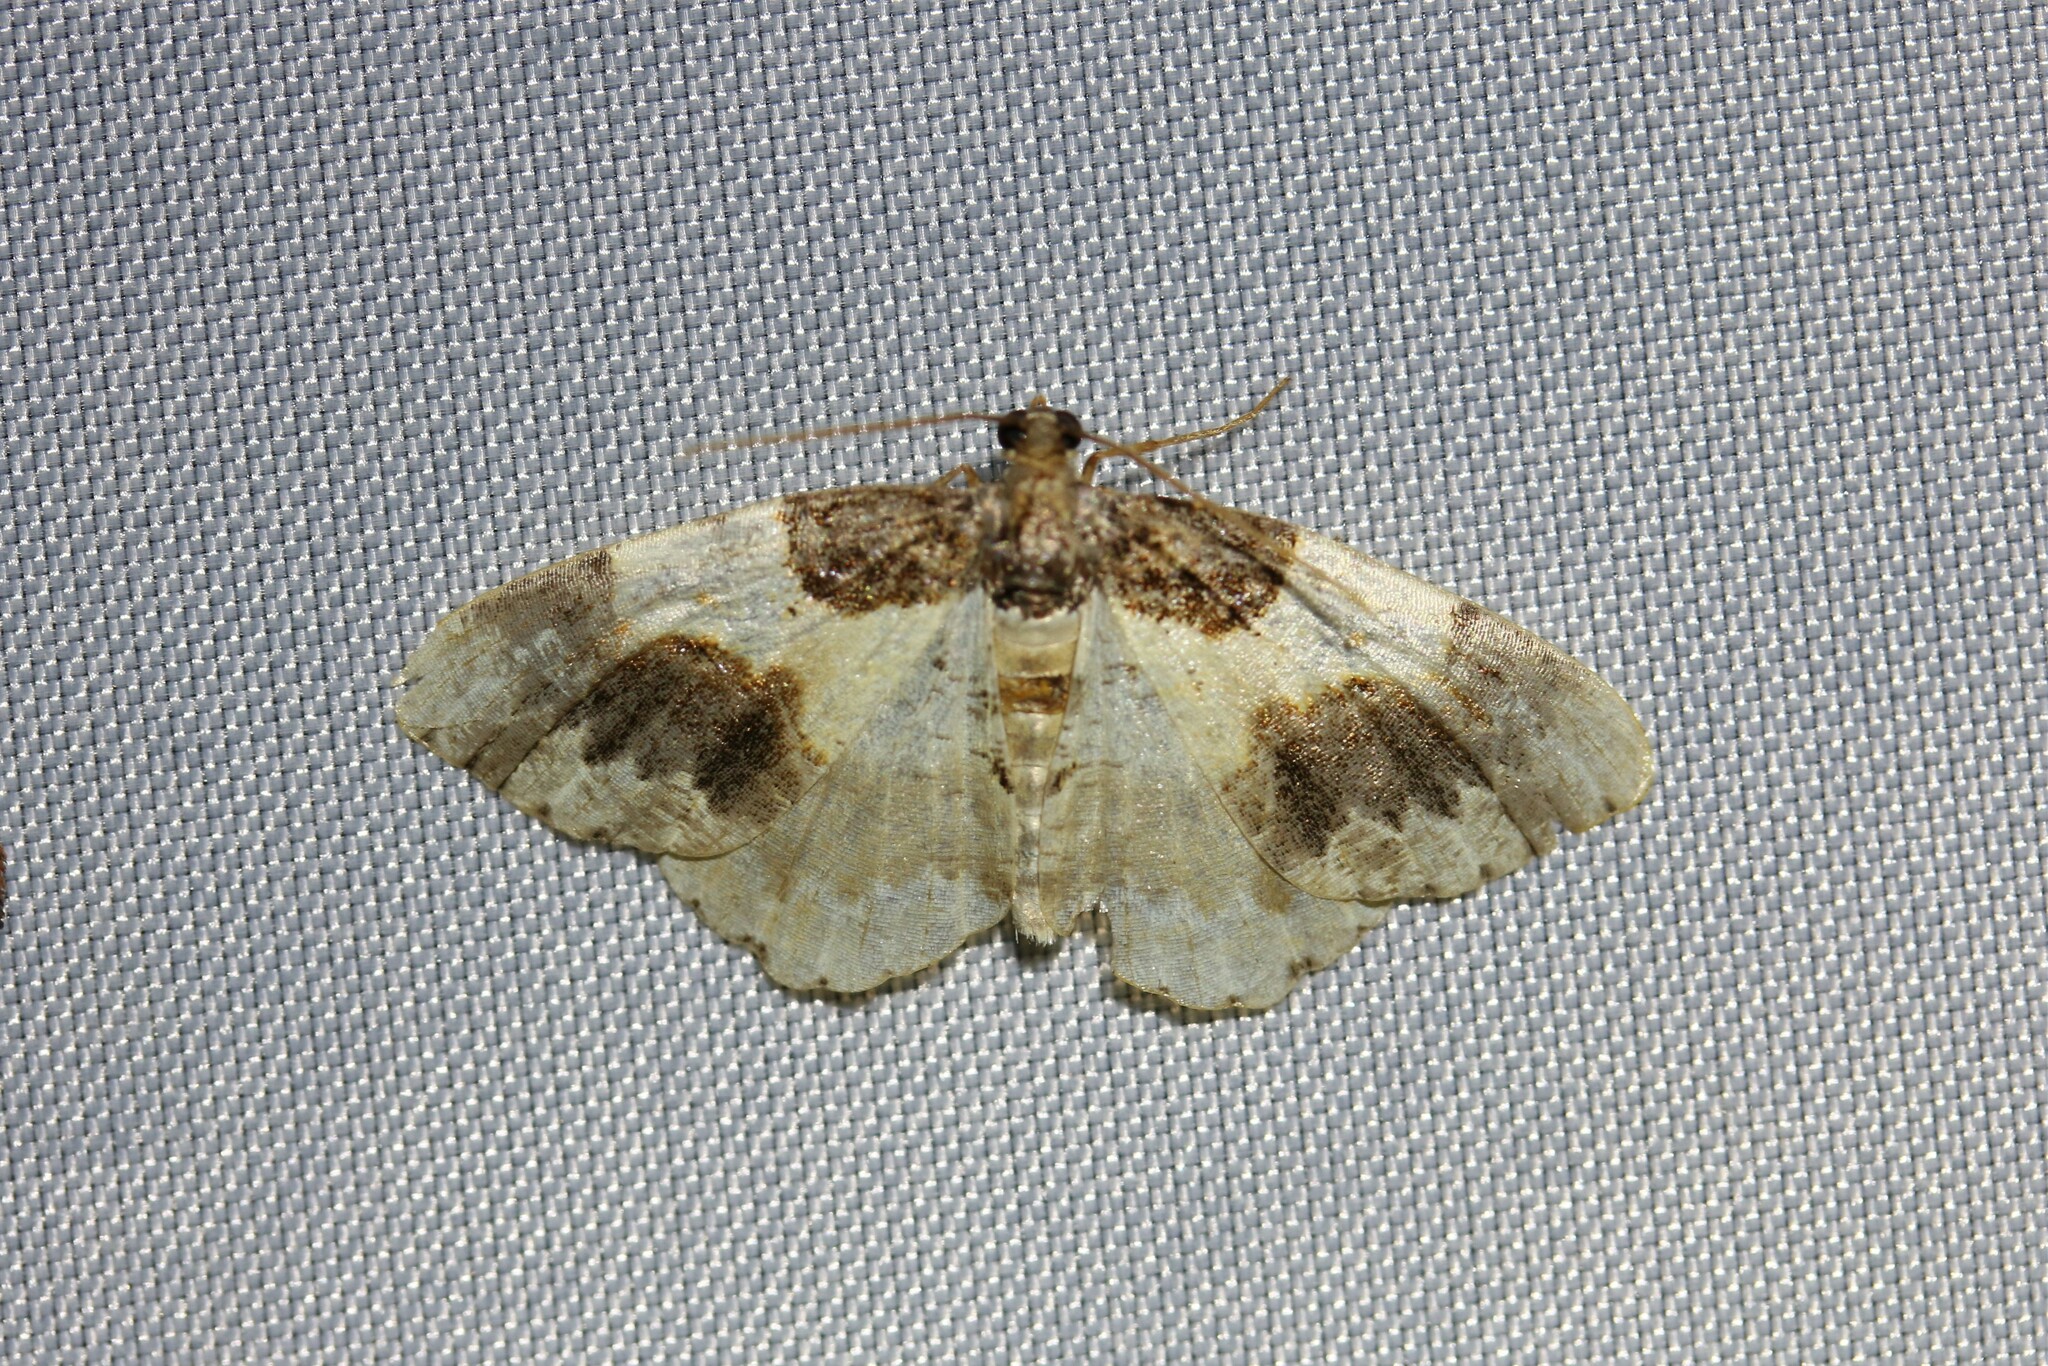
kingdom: Animalia
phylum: Arthropoda
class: Insecta
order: Lepidoptera
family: Geometridae
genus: Ligdia
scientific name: Ligdia adustata
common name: Scorched carpet
